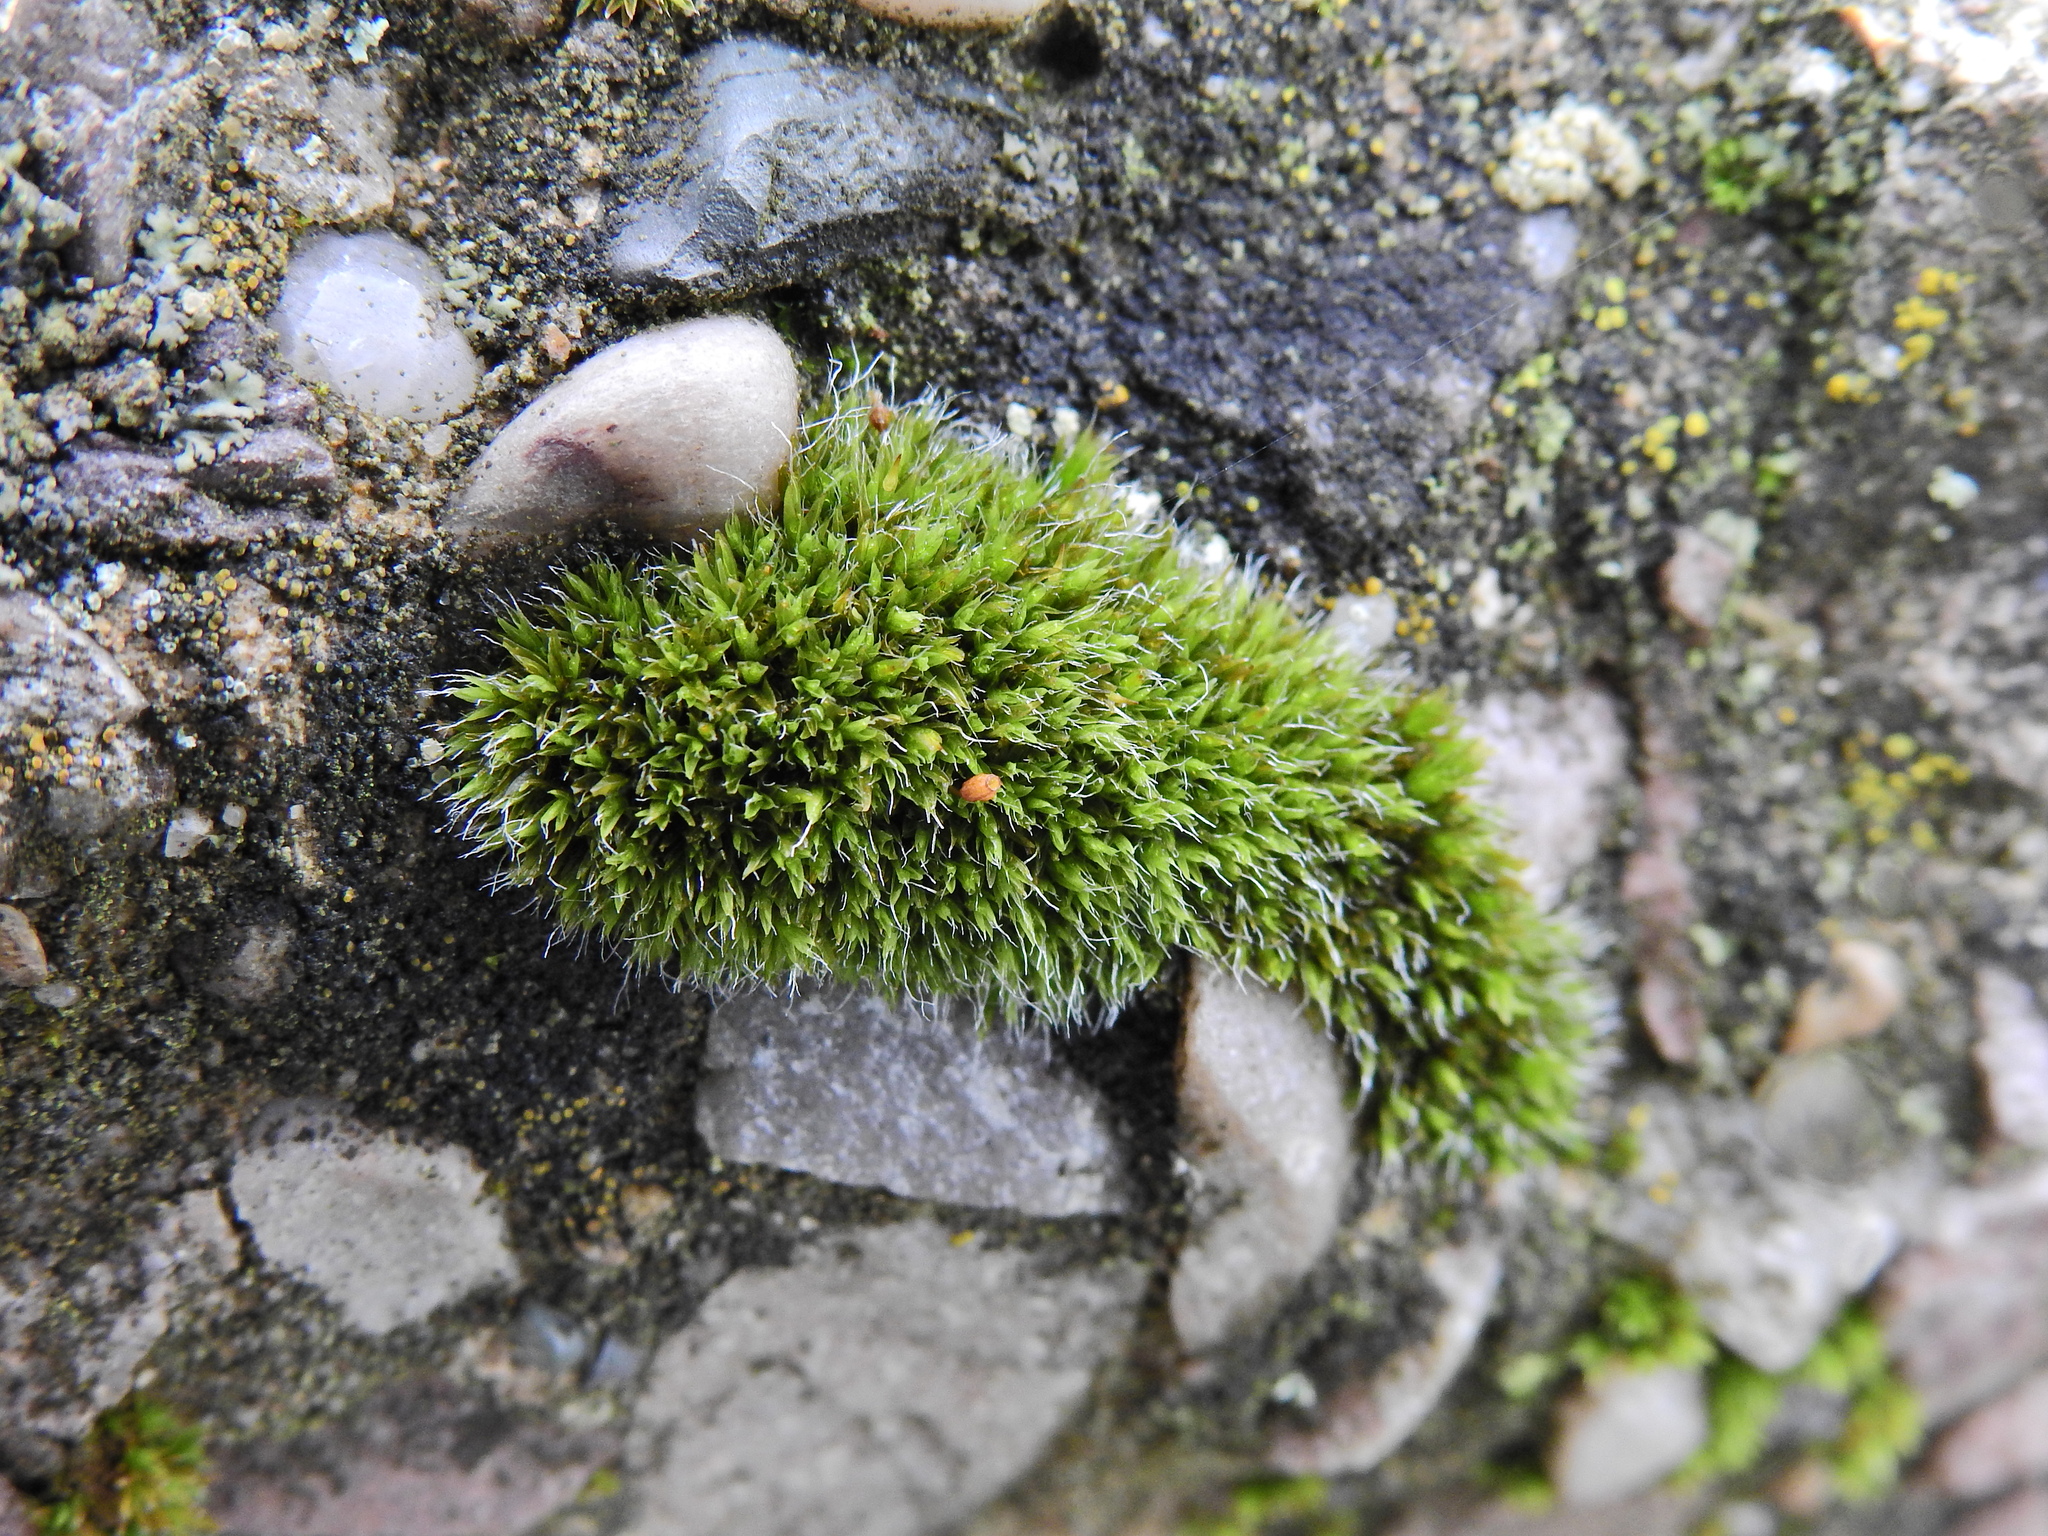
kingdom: Plantae
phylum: Bryophyta
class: Bryopsida
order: Grimmiales
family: Grimmiaceae
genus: Grimmia
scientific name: Grimmia pulvinata
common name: Grey-cushioned grimmia
